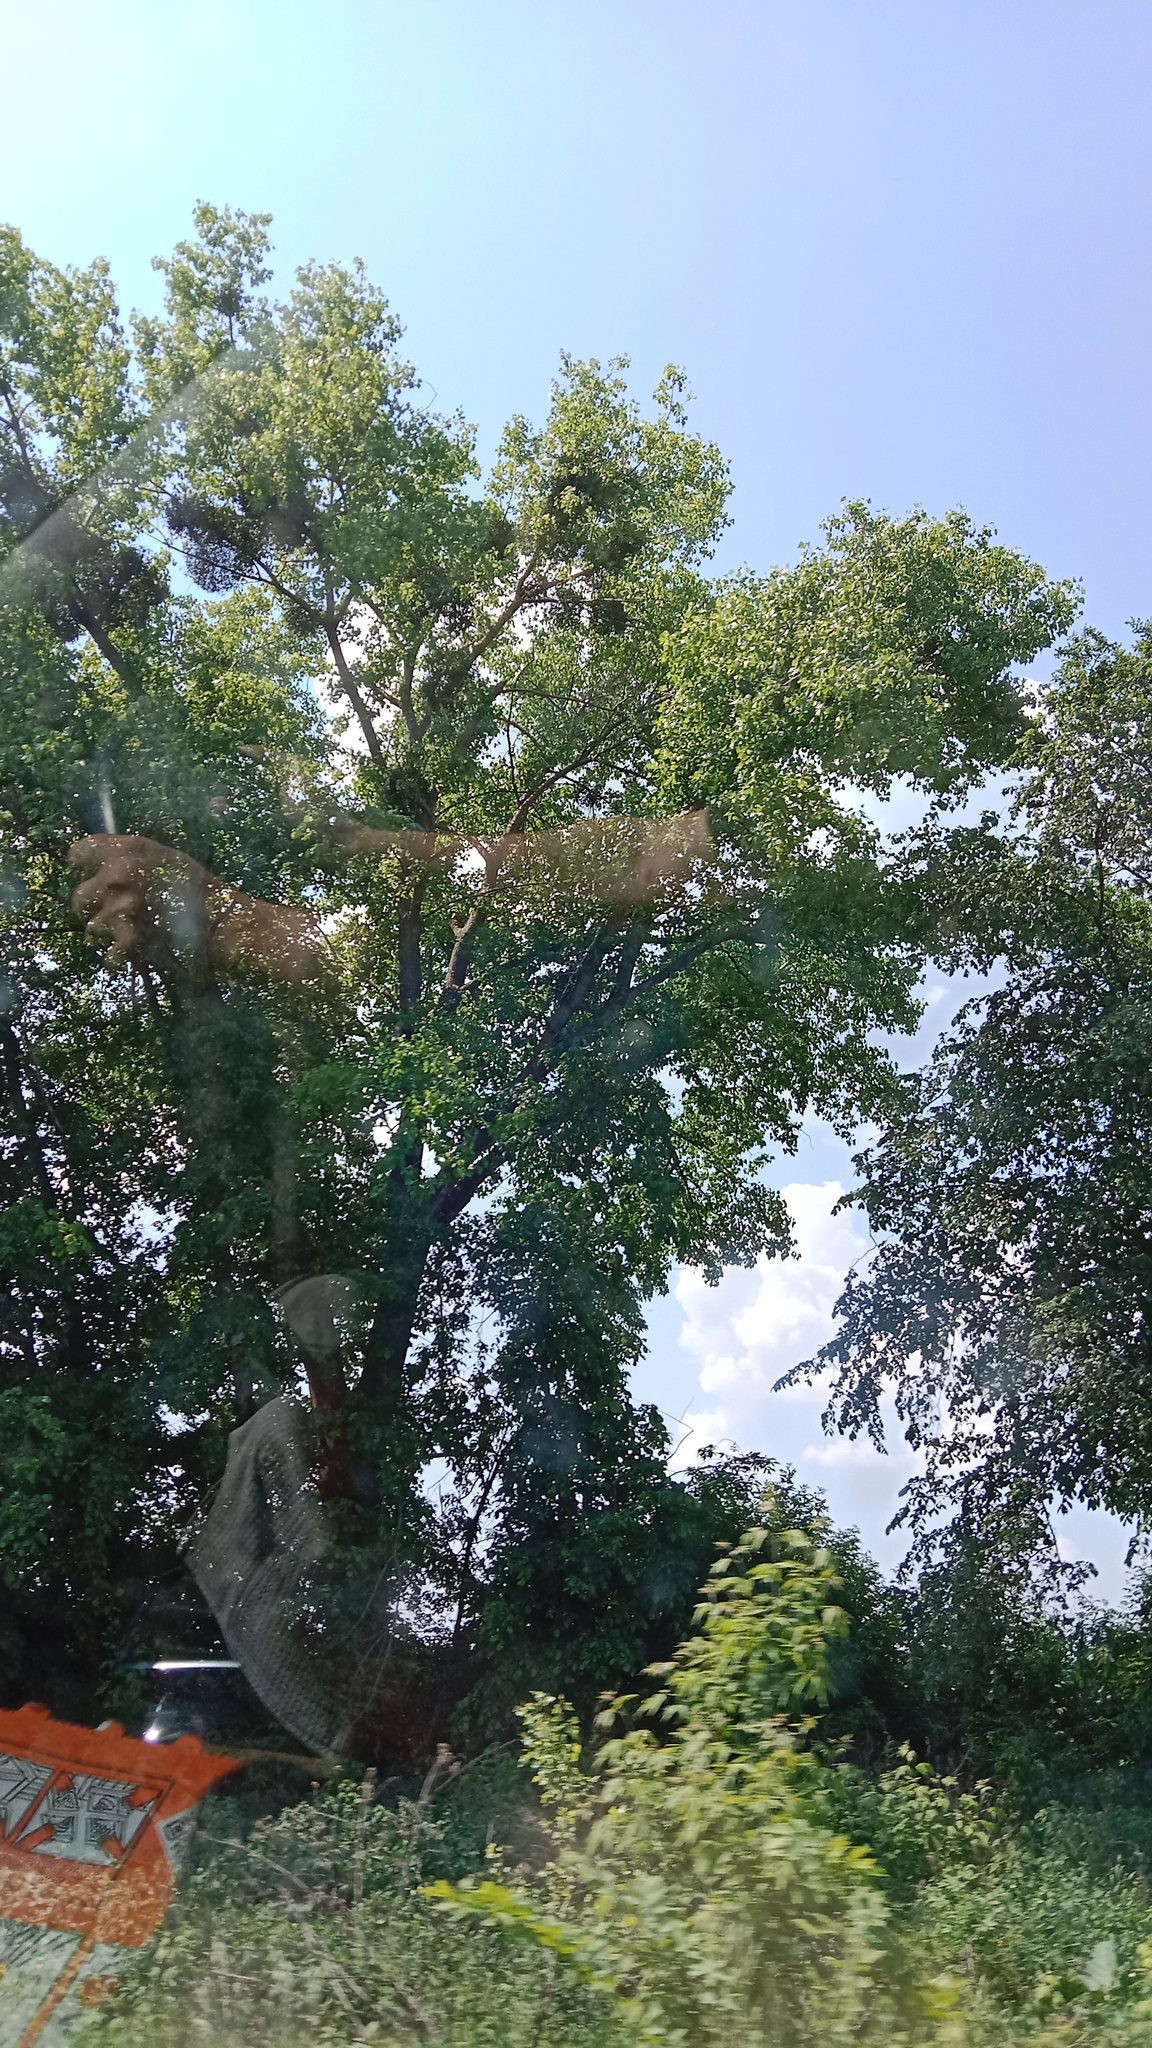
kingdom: Plantae
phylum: Tracheophyta
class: Magnoliopsida
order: Santalales
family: Viscaceae
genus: Viscum
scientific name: Viscum album
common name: Mistletoe
